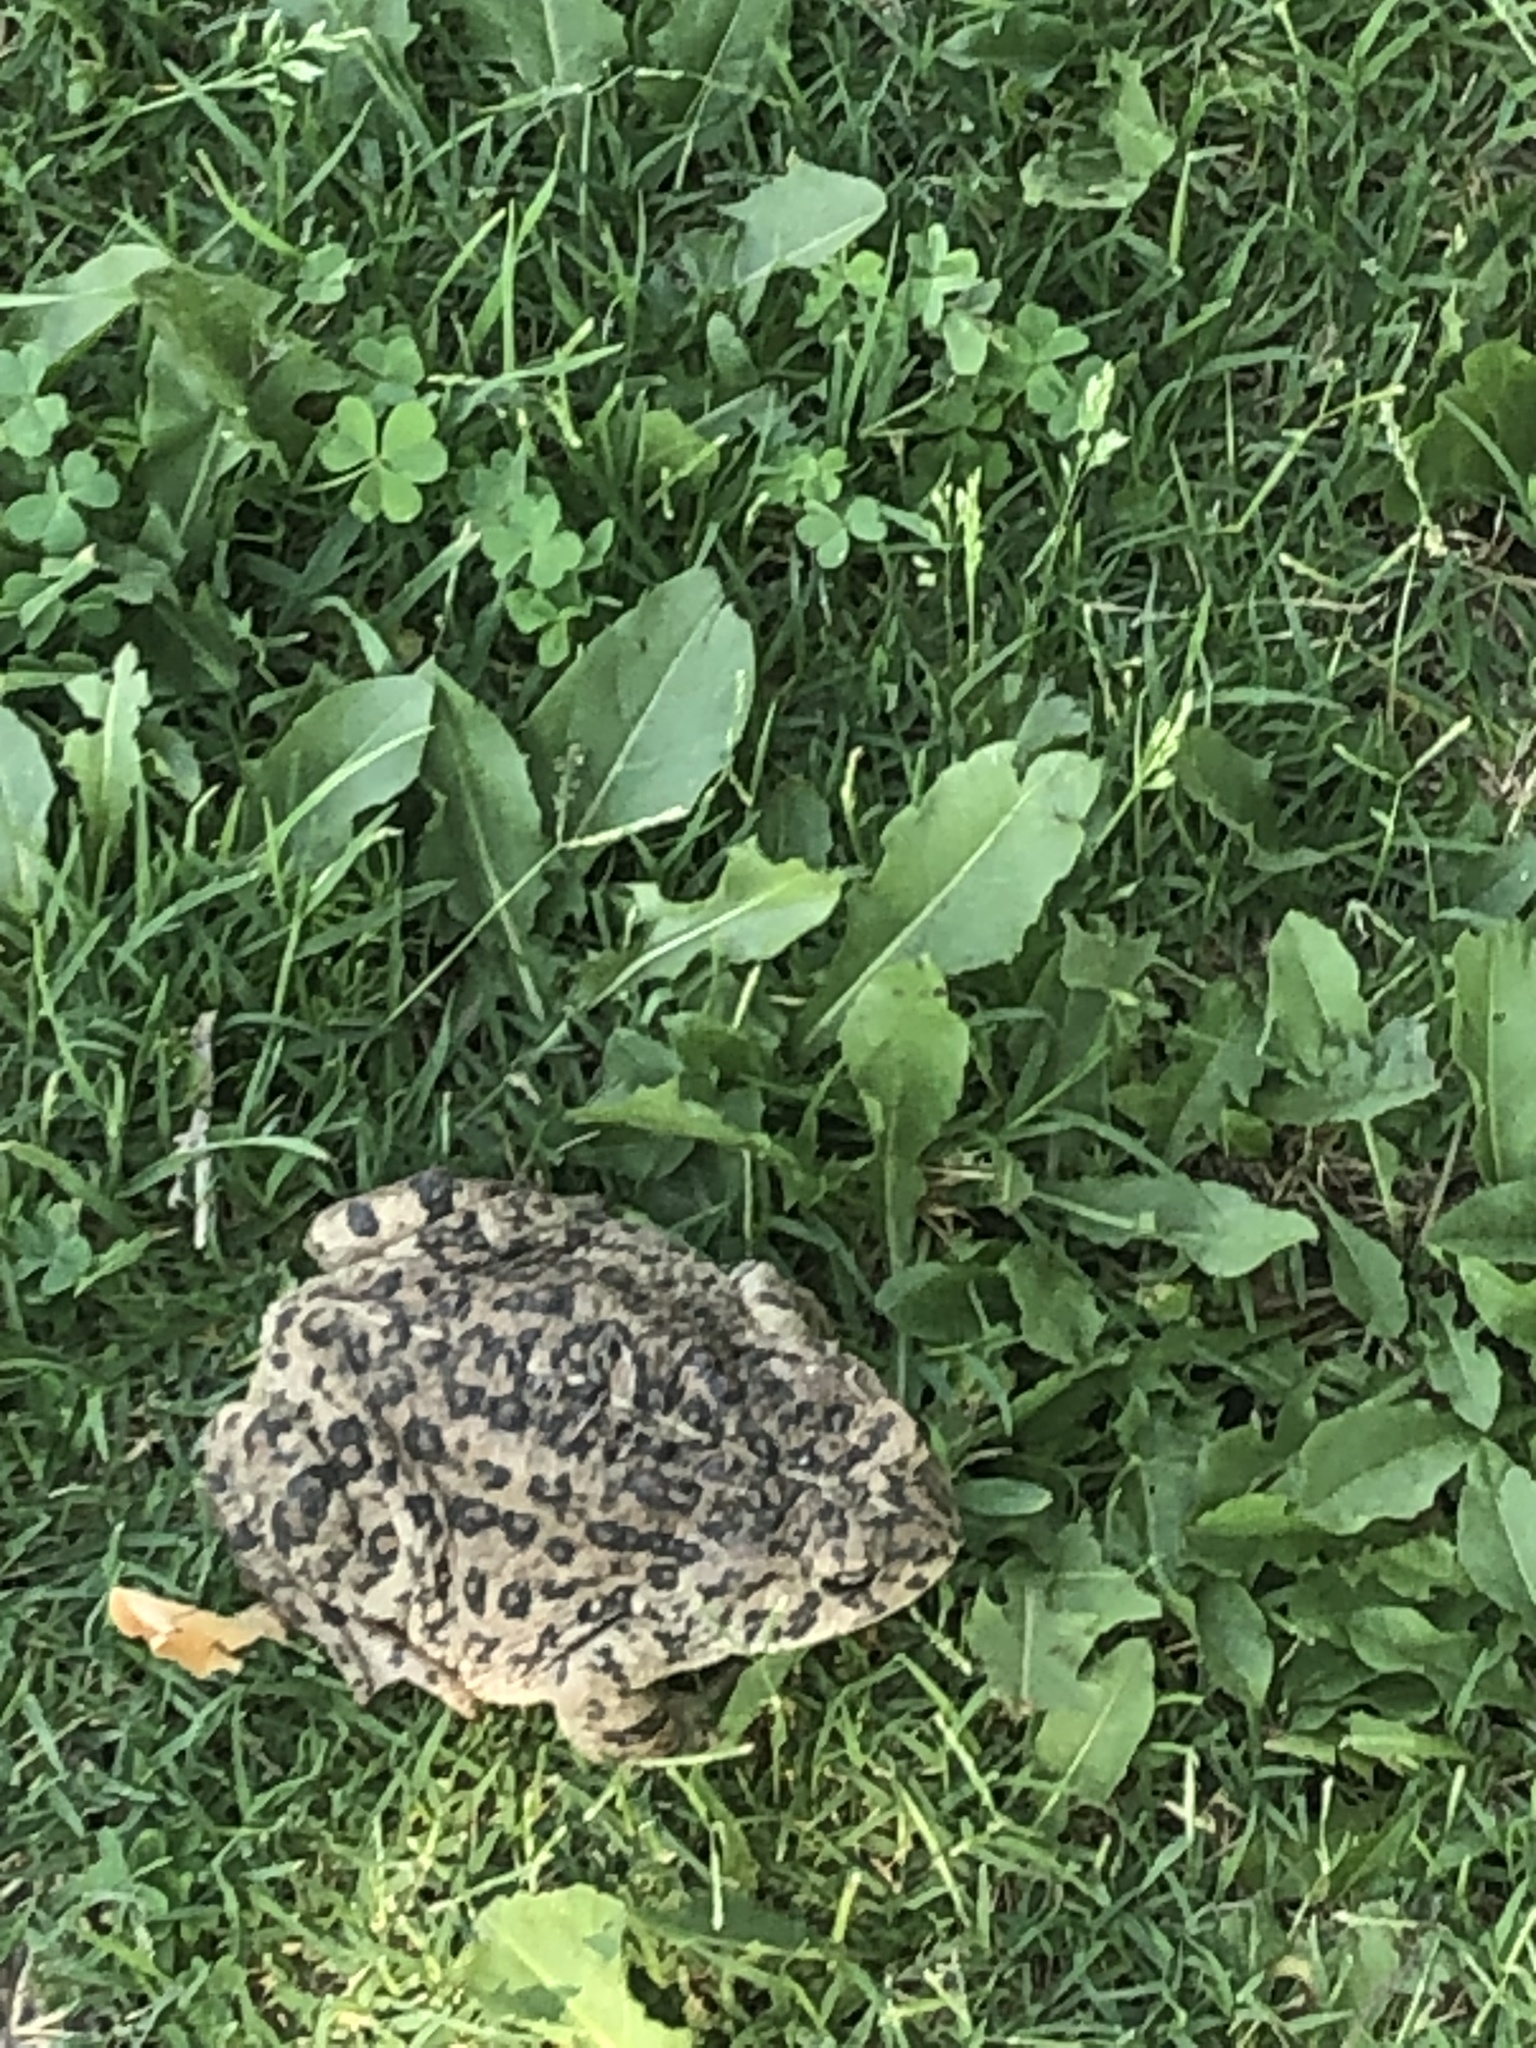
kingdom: Animalia
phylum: Chordata
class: Amphibia
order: Anura
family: Bufonidae
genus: Anaxyrus
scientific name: Anaxyrus boreas
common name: Western toad
